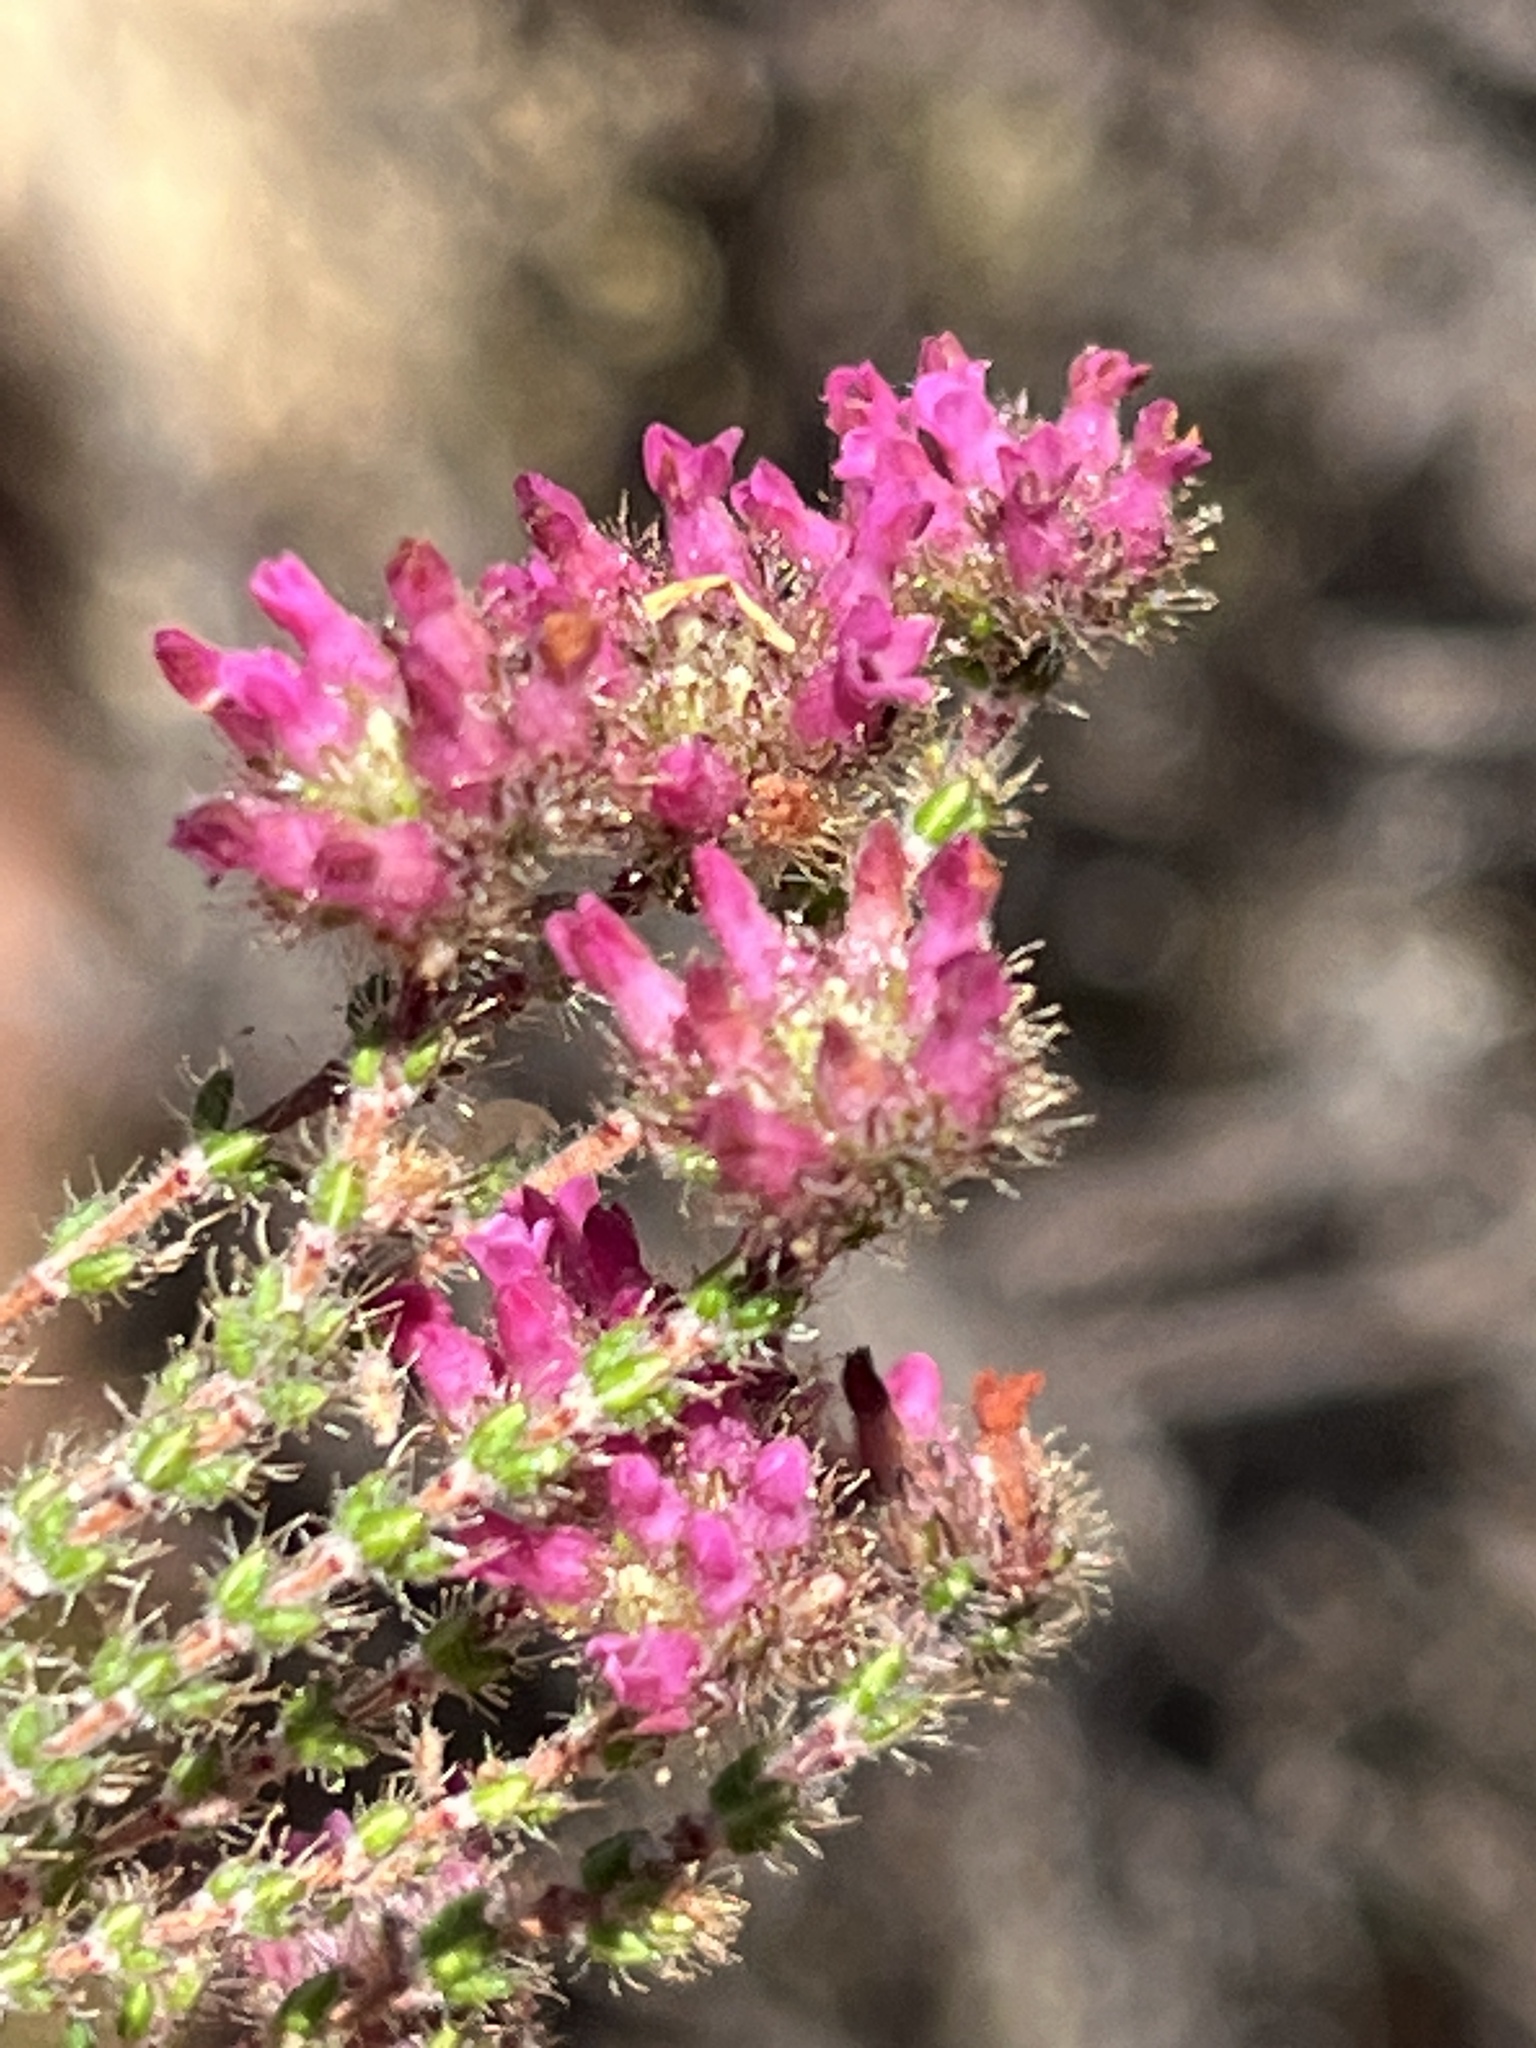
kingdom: Plantae
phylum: Tracheophyta
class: Magnoliopsida
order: Ericales
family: Ericaceae
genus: Erica
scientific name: Erica ingeana
